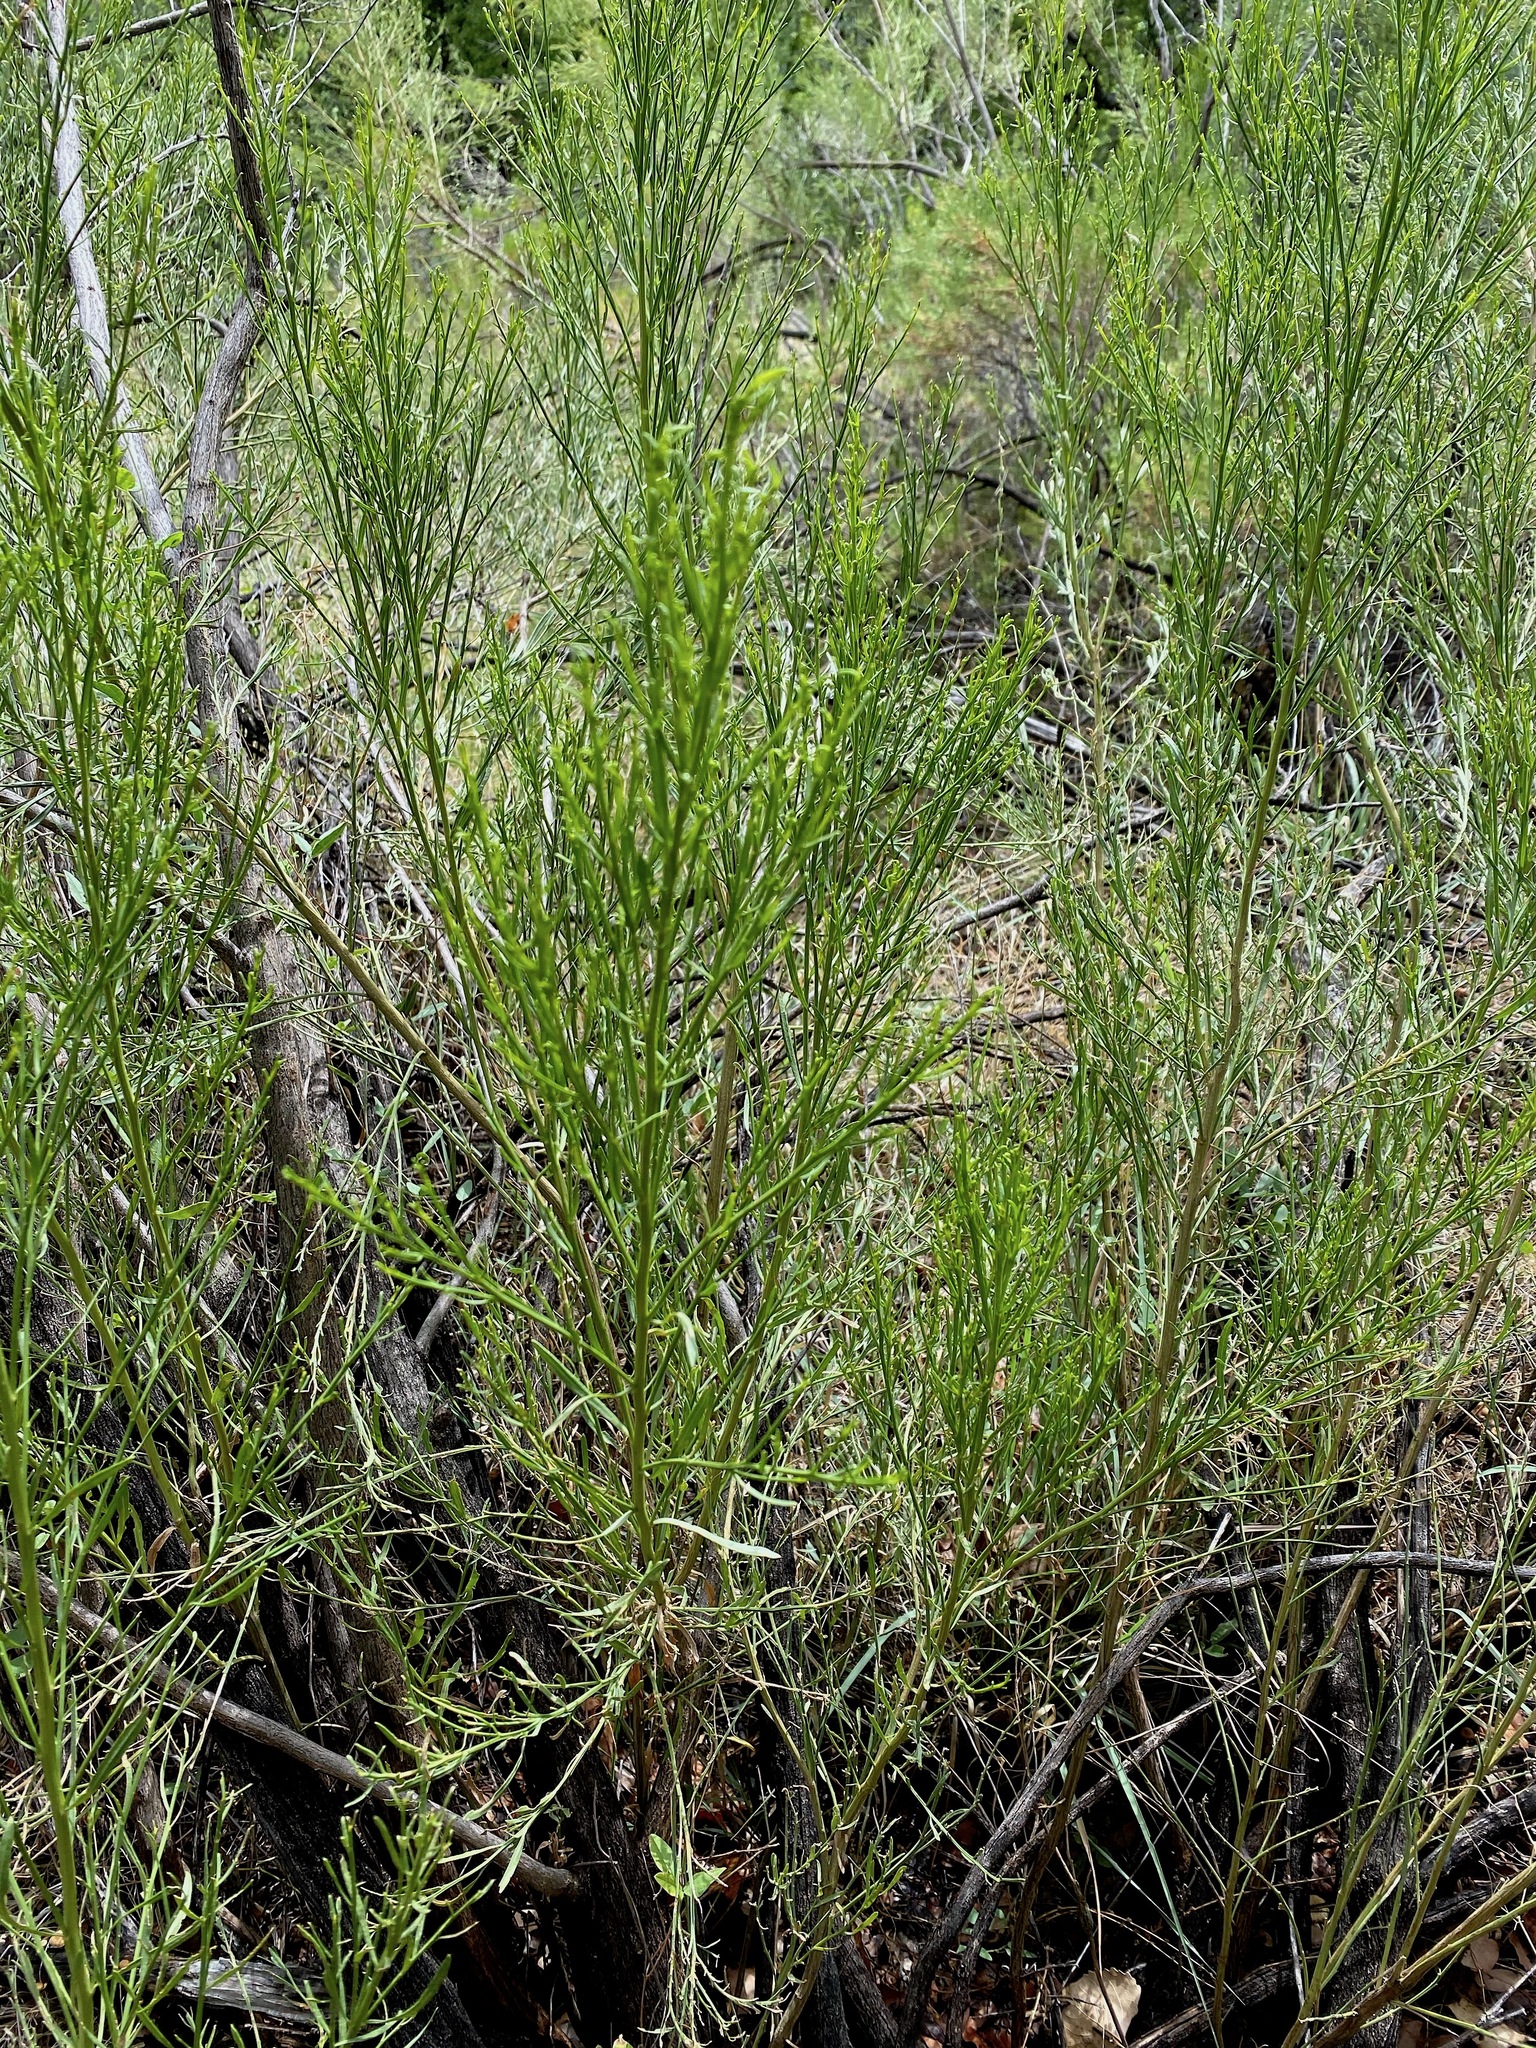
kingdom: Plantae
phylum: Tracheophyta
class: Magnoliopsida
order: Asterales
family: Asteraceae
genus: Baccharis
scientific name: Baccharis sarothroides
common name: Desert-broom
